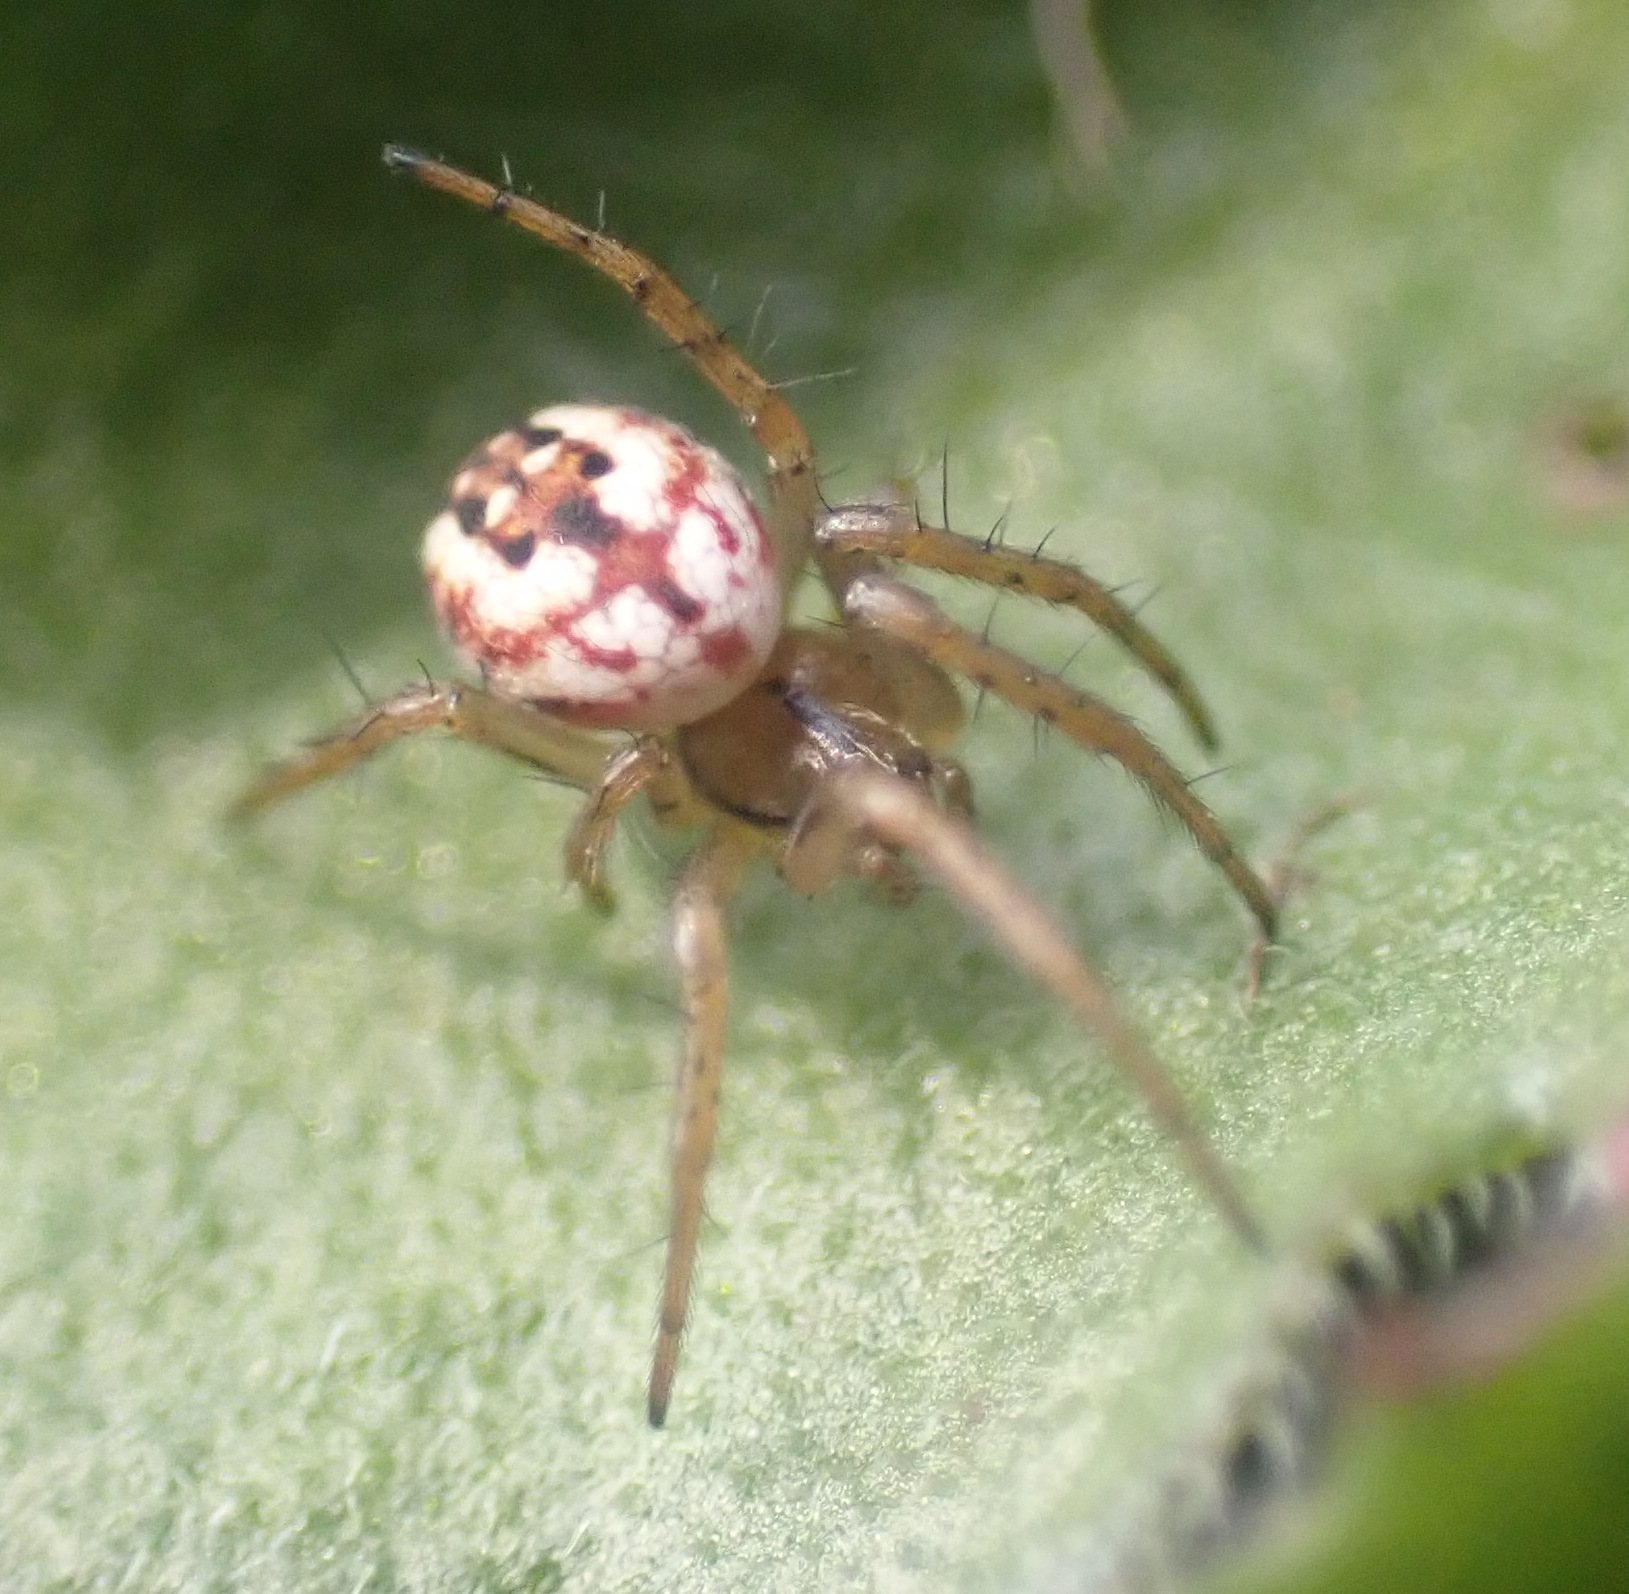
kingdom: Animalia
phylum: Arthropoda
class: Arachnida
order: Araneae
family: Araneidae
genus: Mangora
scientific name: Mangora acalypha
